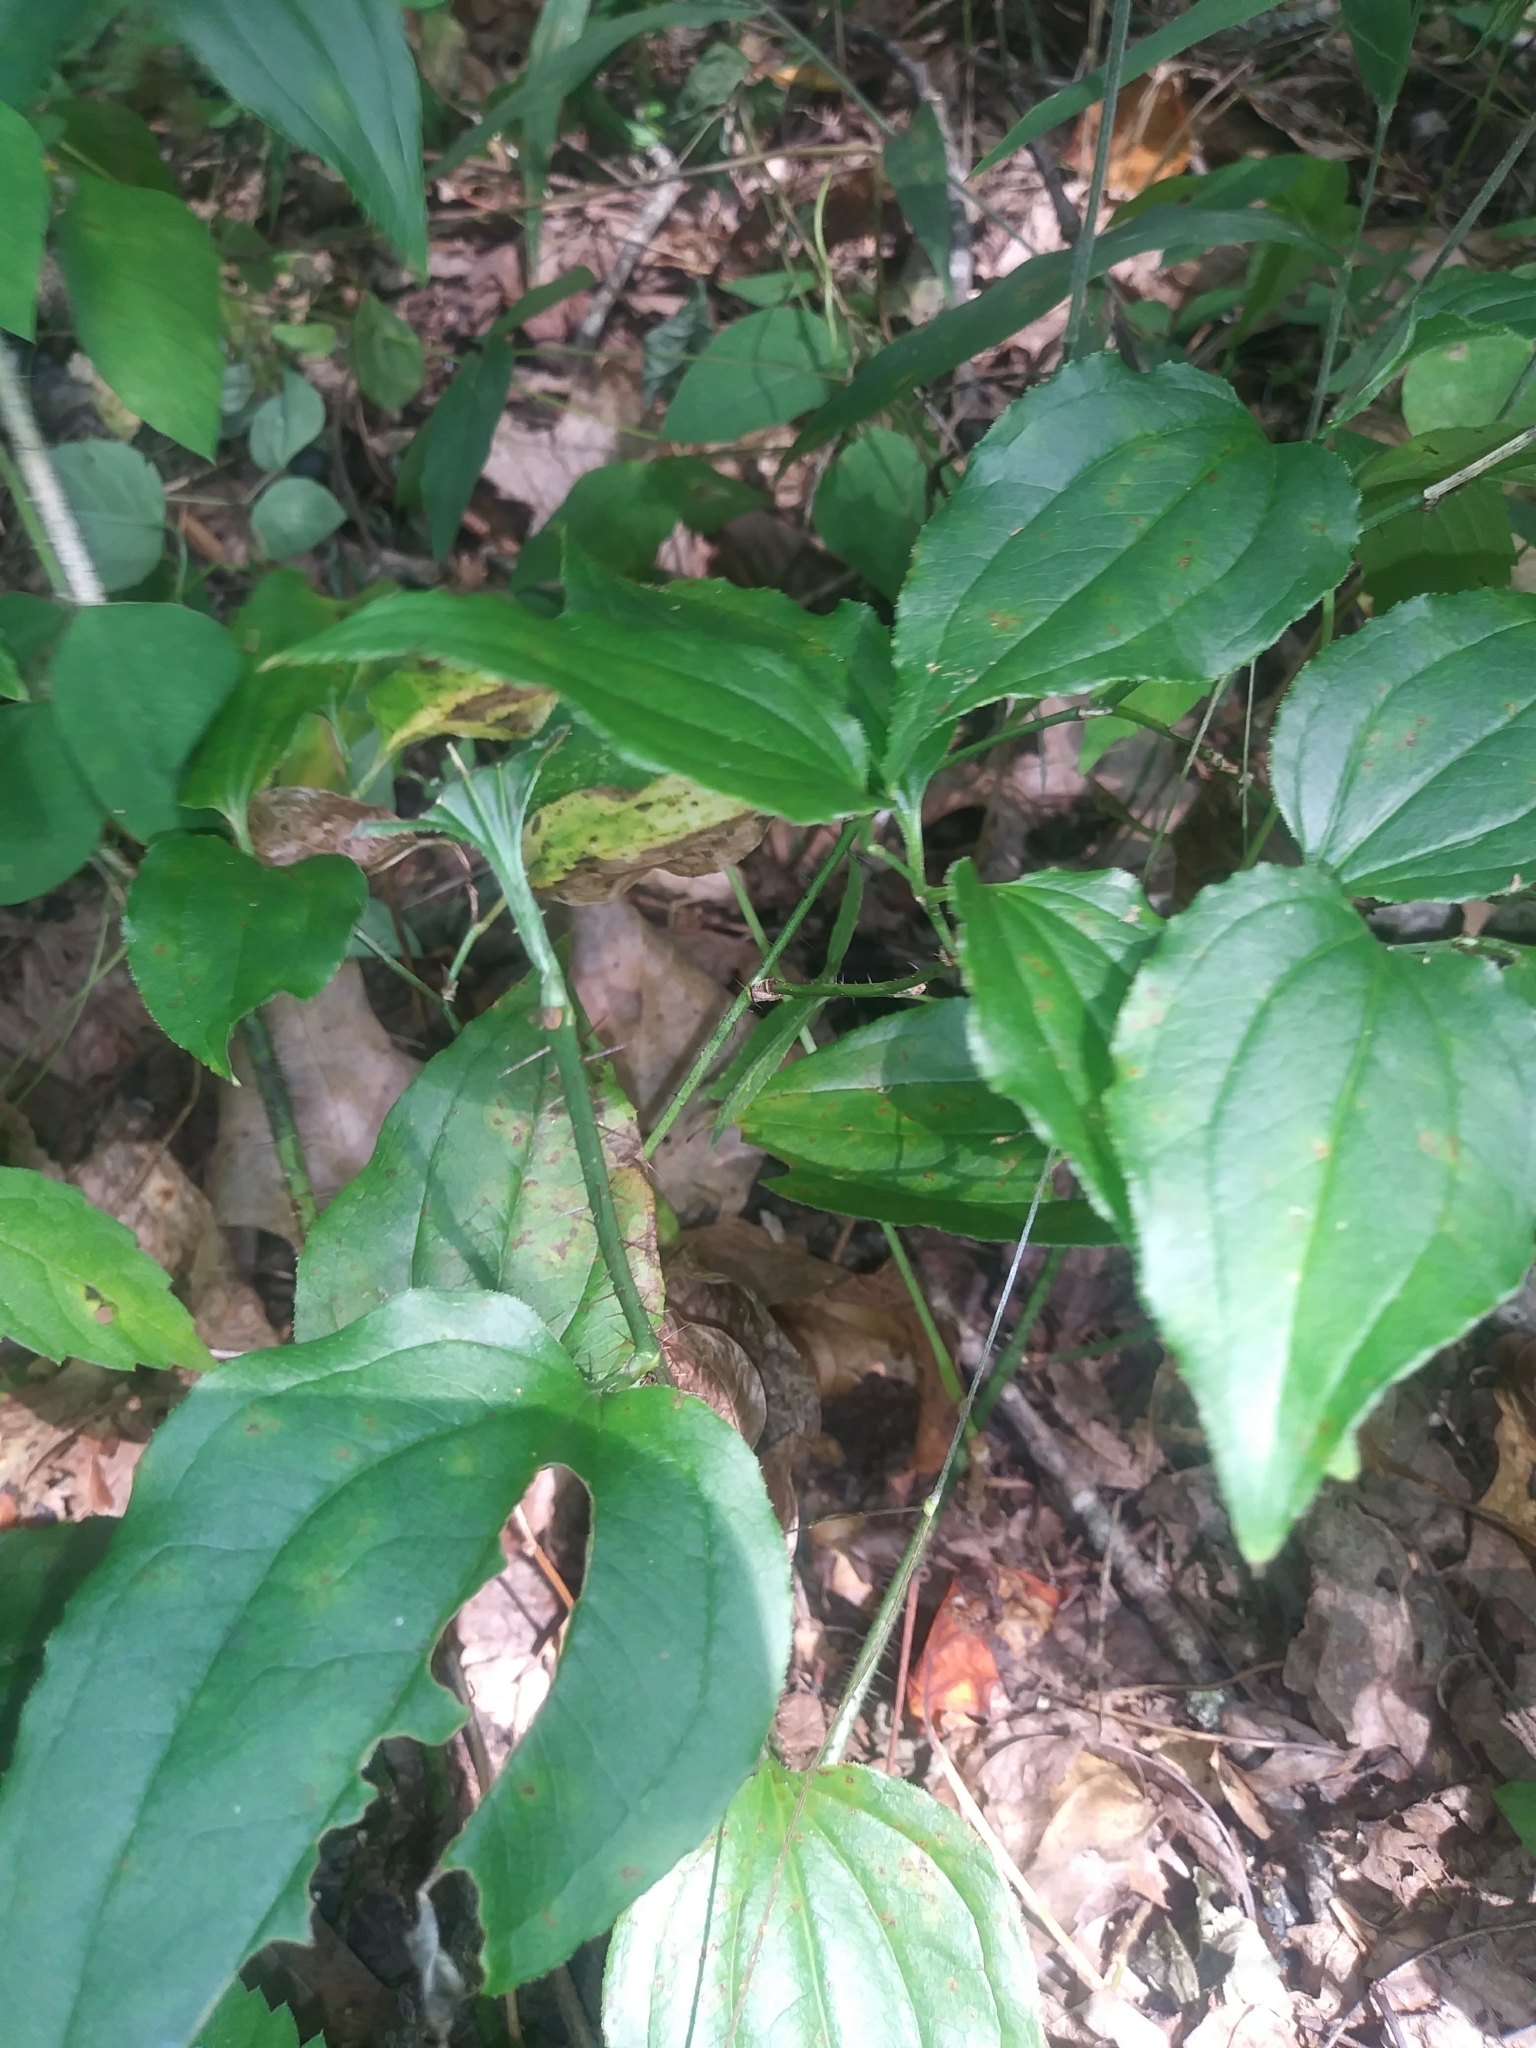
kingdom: Plantae
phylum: Tracheophyta
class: Liliopsida
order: Liliales
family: Smilacaceae
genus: Smilax
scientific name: Smilax tamnoides
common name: Hellfetter
